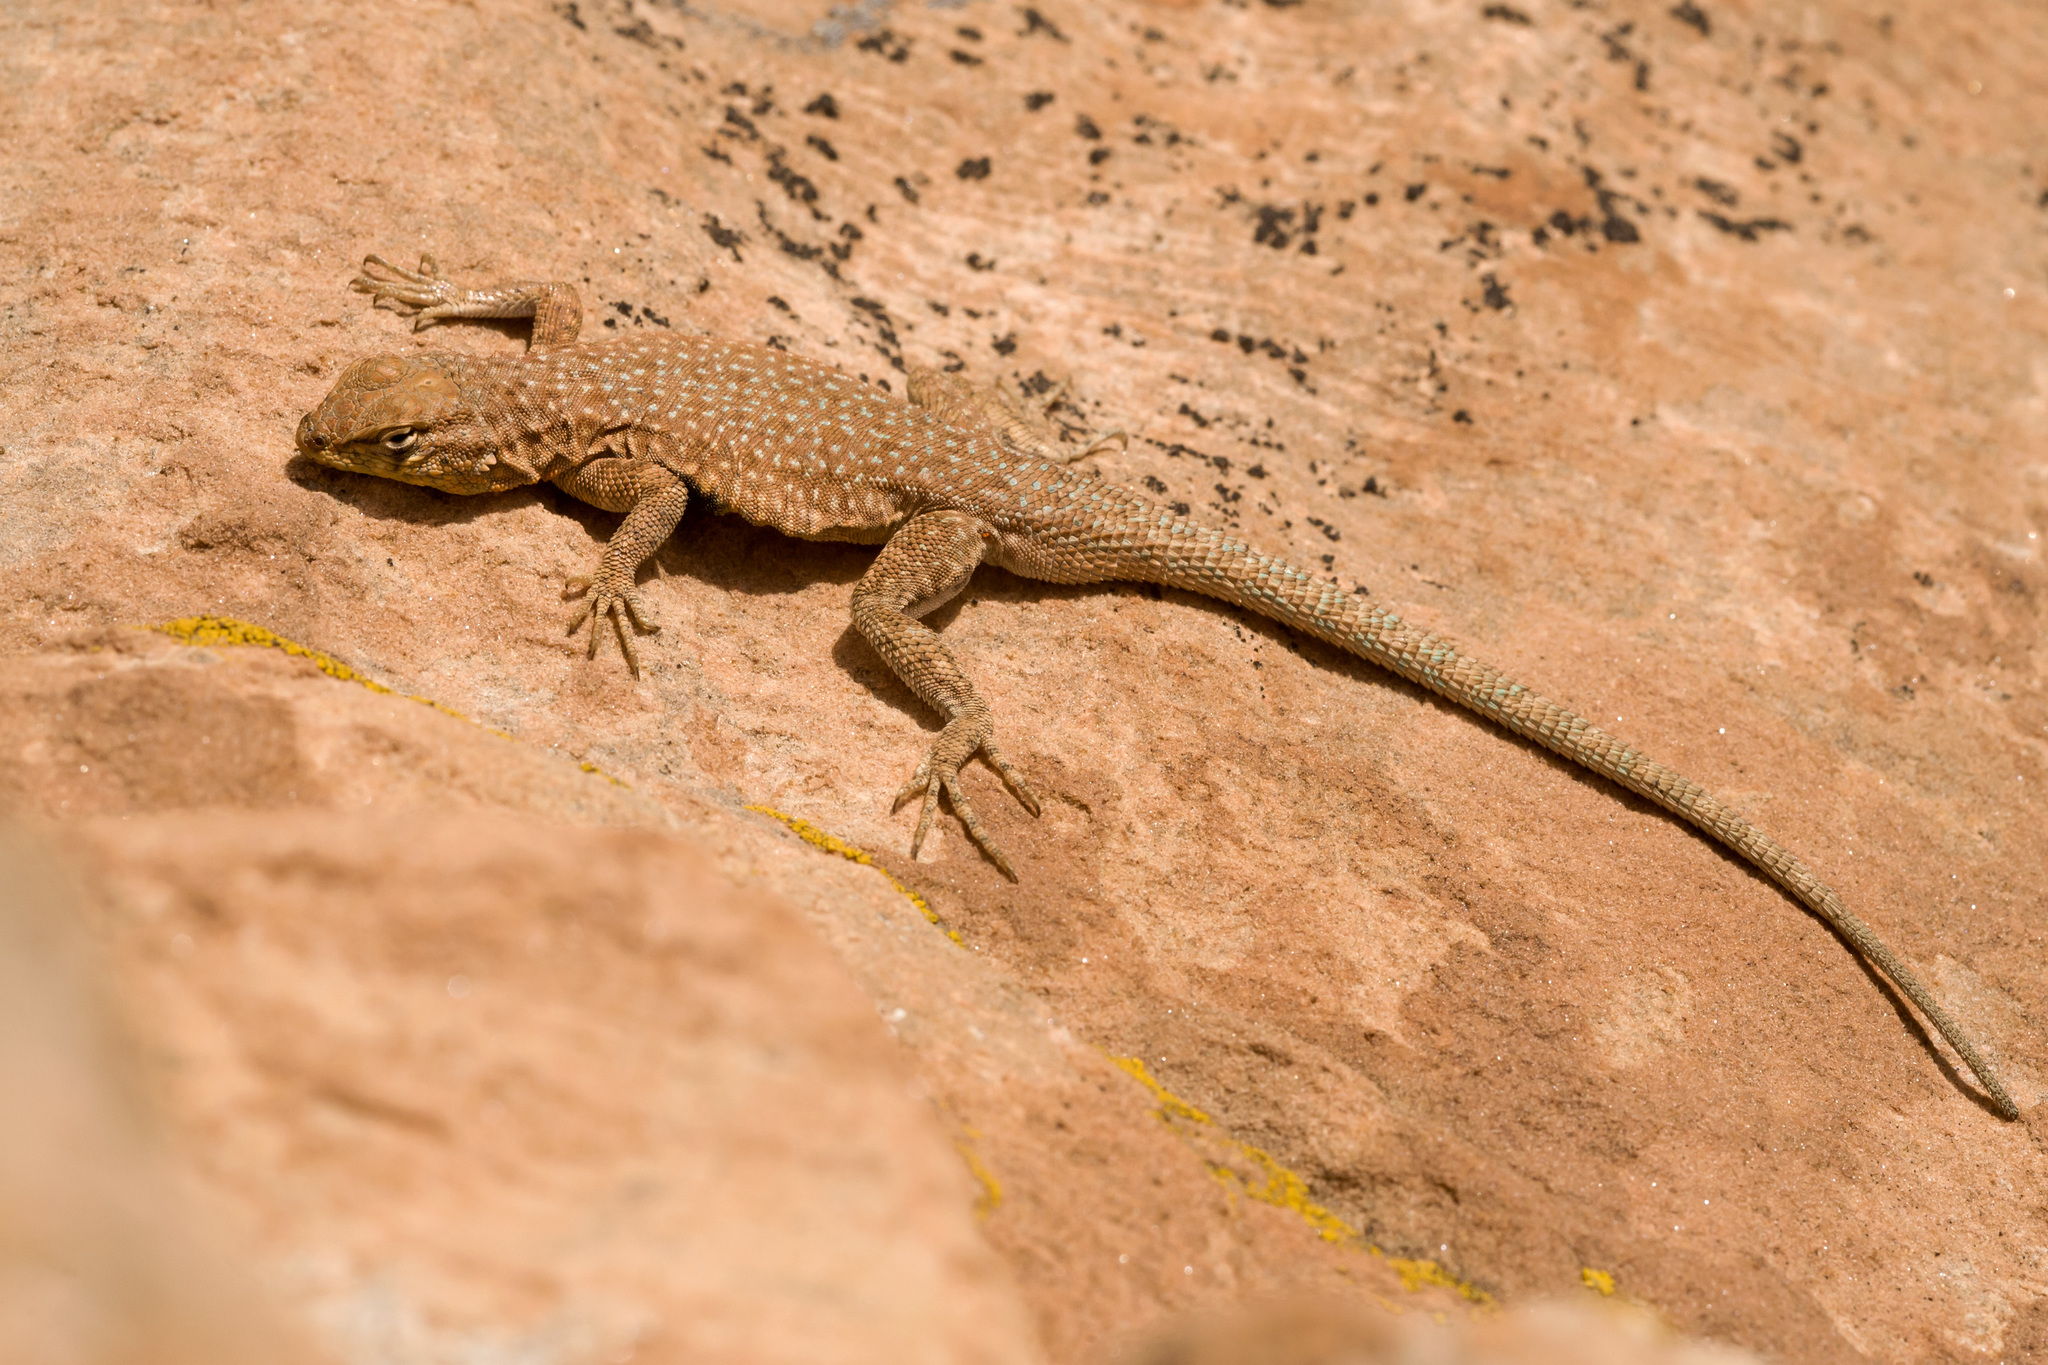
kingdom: Animalia
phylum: Chordata
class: Squamata
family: Phrynosomatidae
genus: Uta
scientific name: Uta stansburiana
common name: Side-blotched lizard
